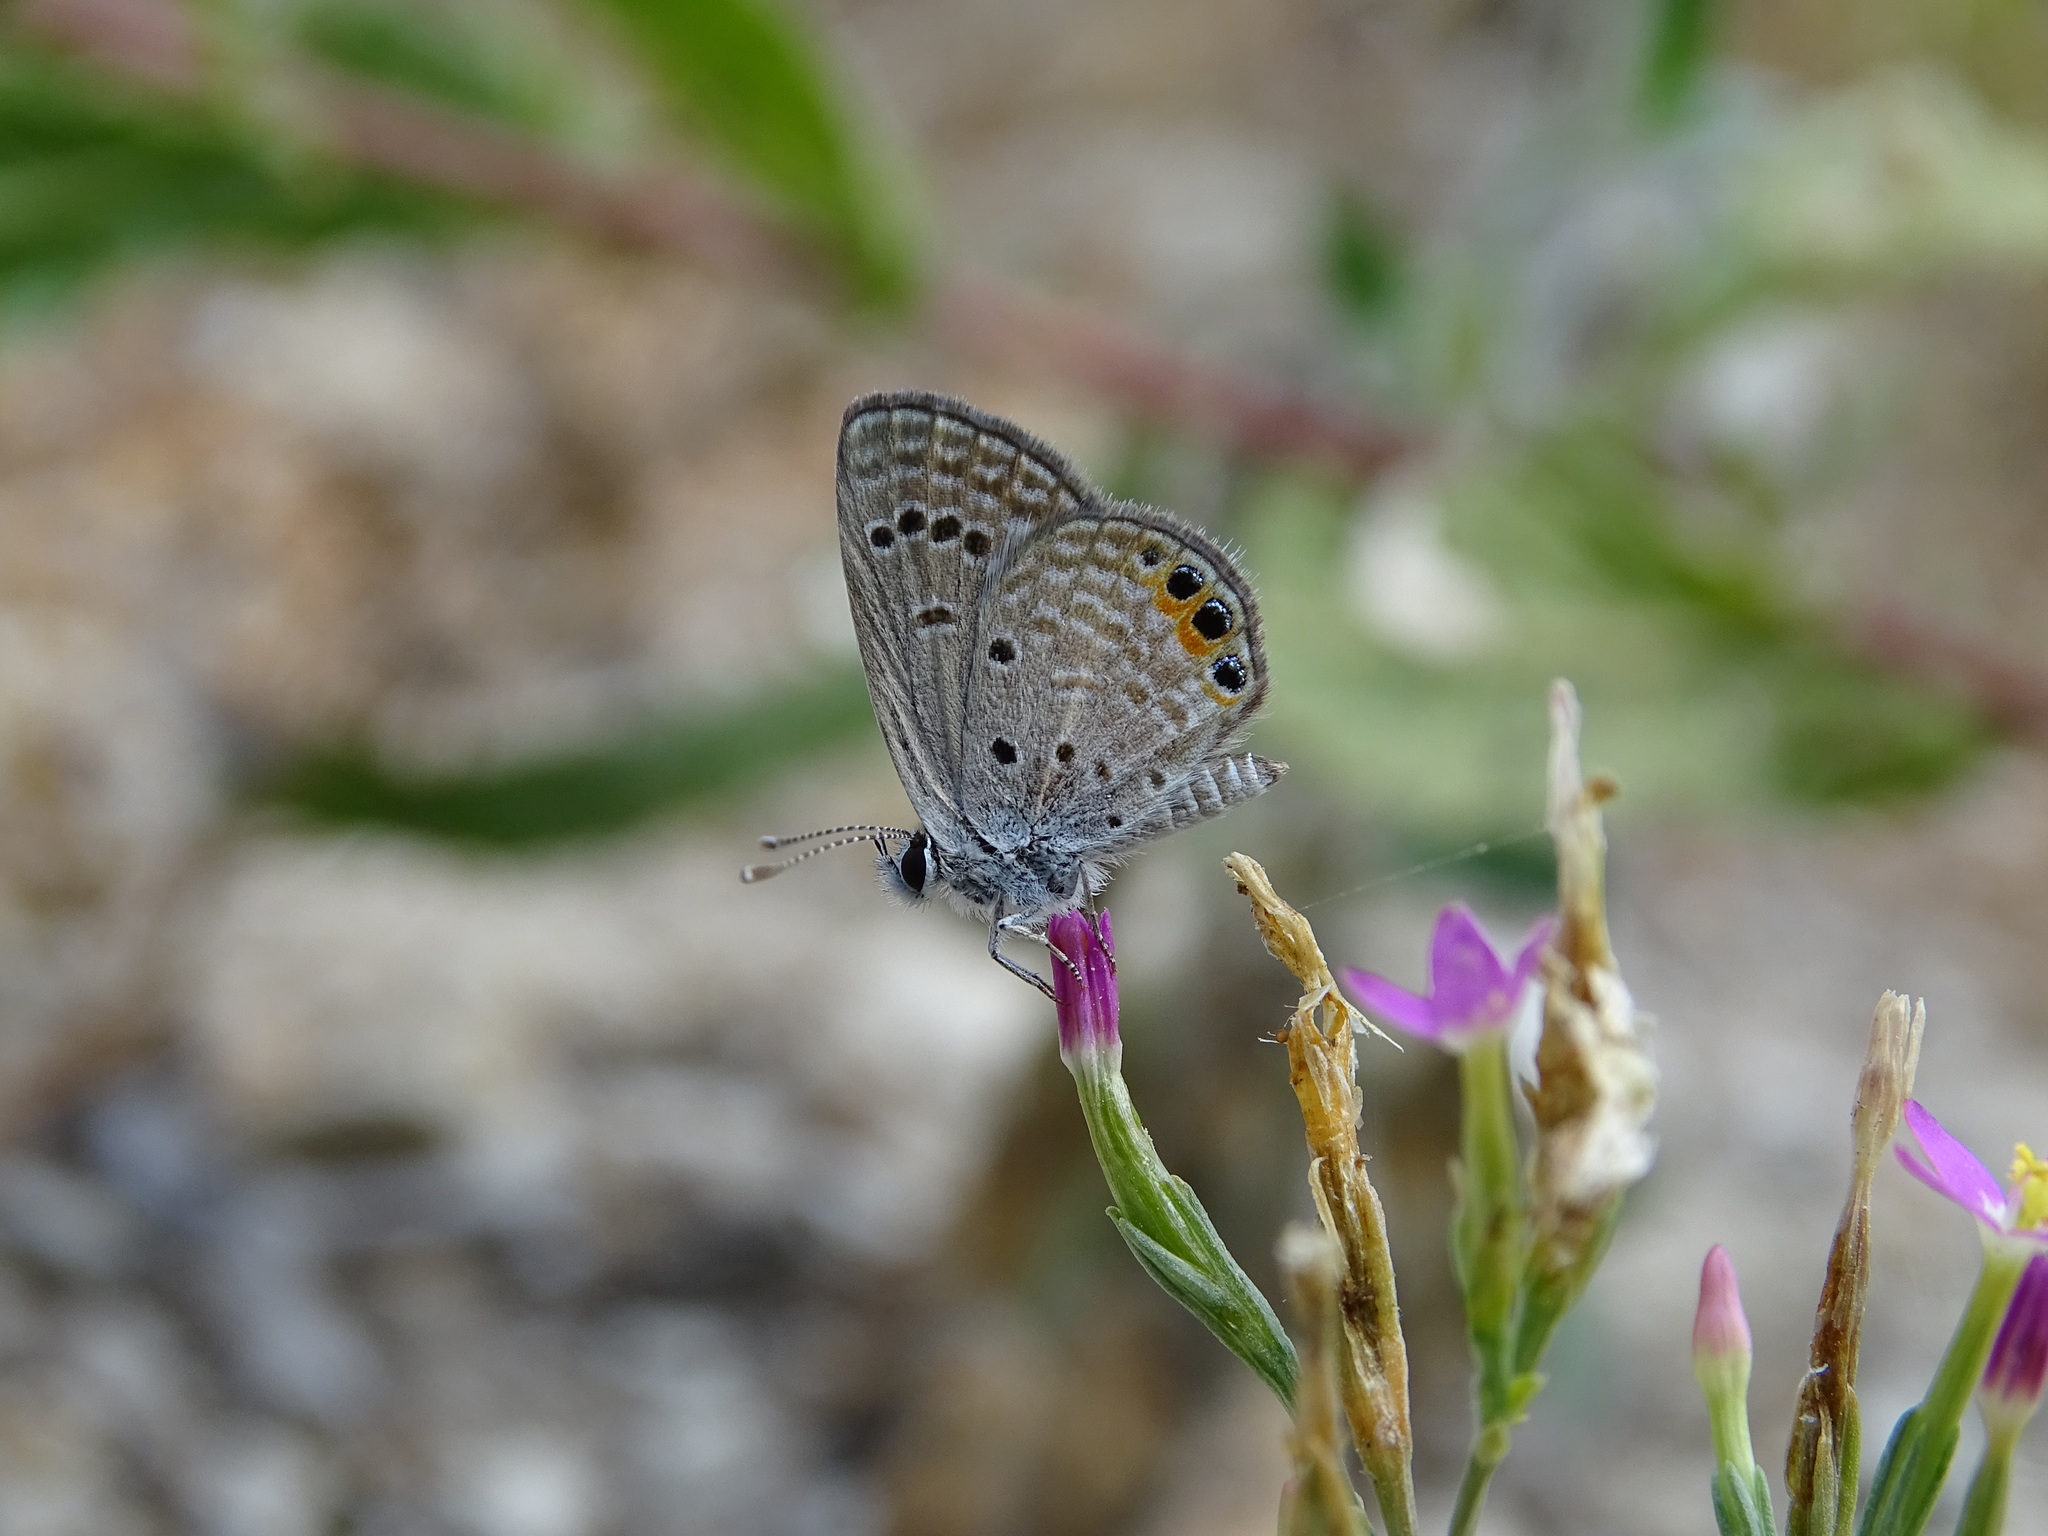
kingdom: Animalia
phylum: Arthropoda
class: Insecta
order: Lepidoptera
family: Lycaenidae
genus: Freyeria
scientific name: Freyeria trochylus
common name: Grass jewel
